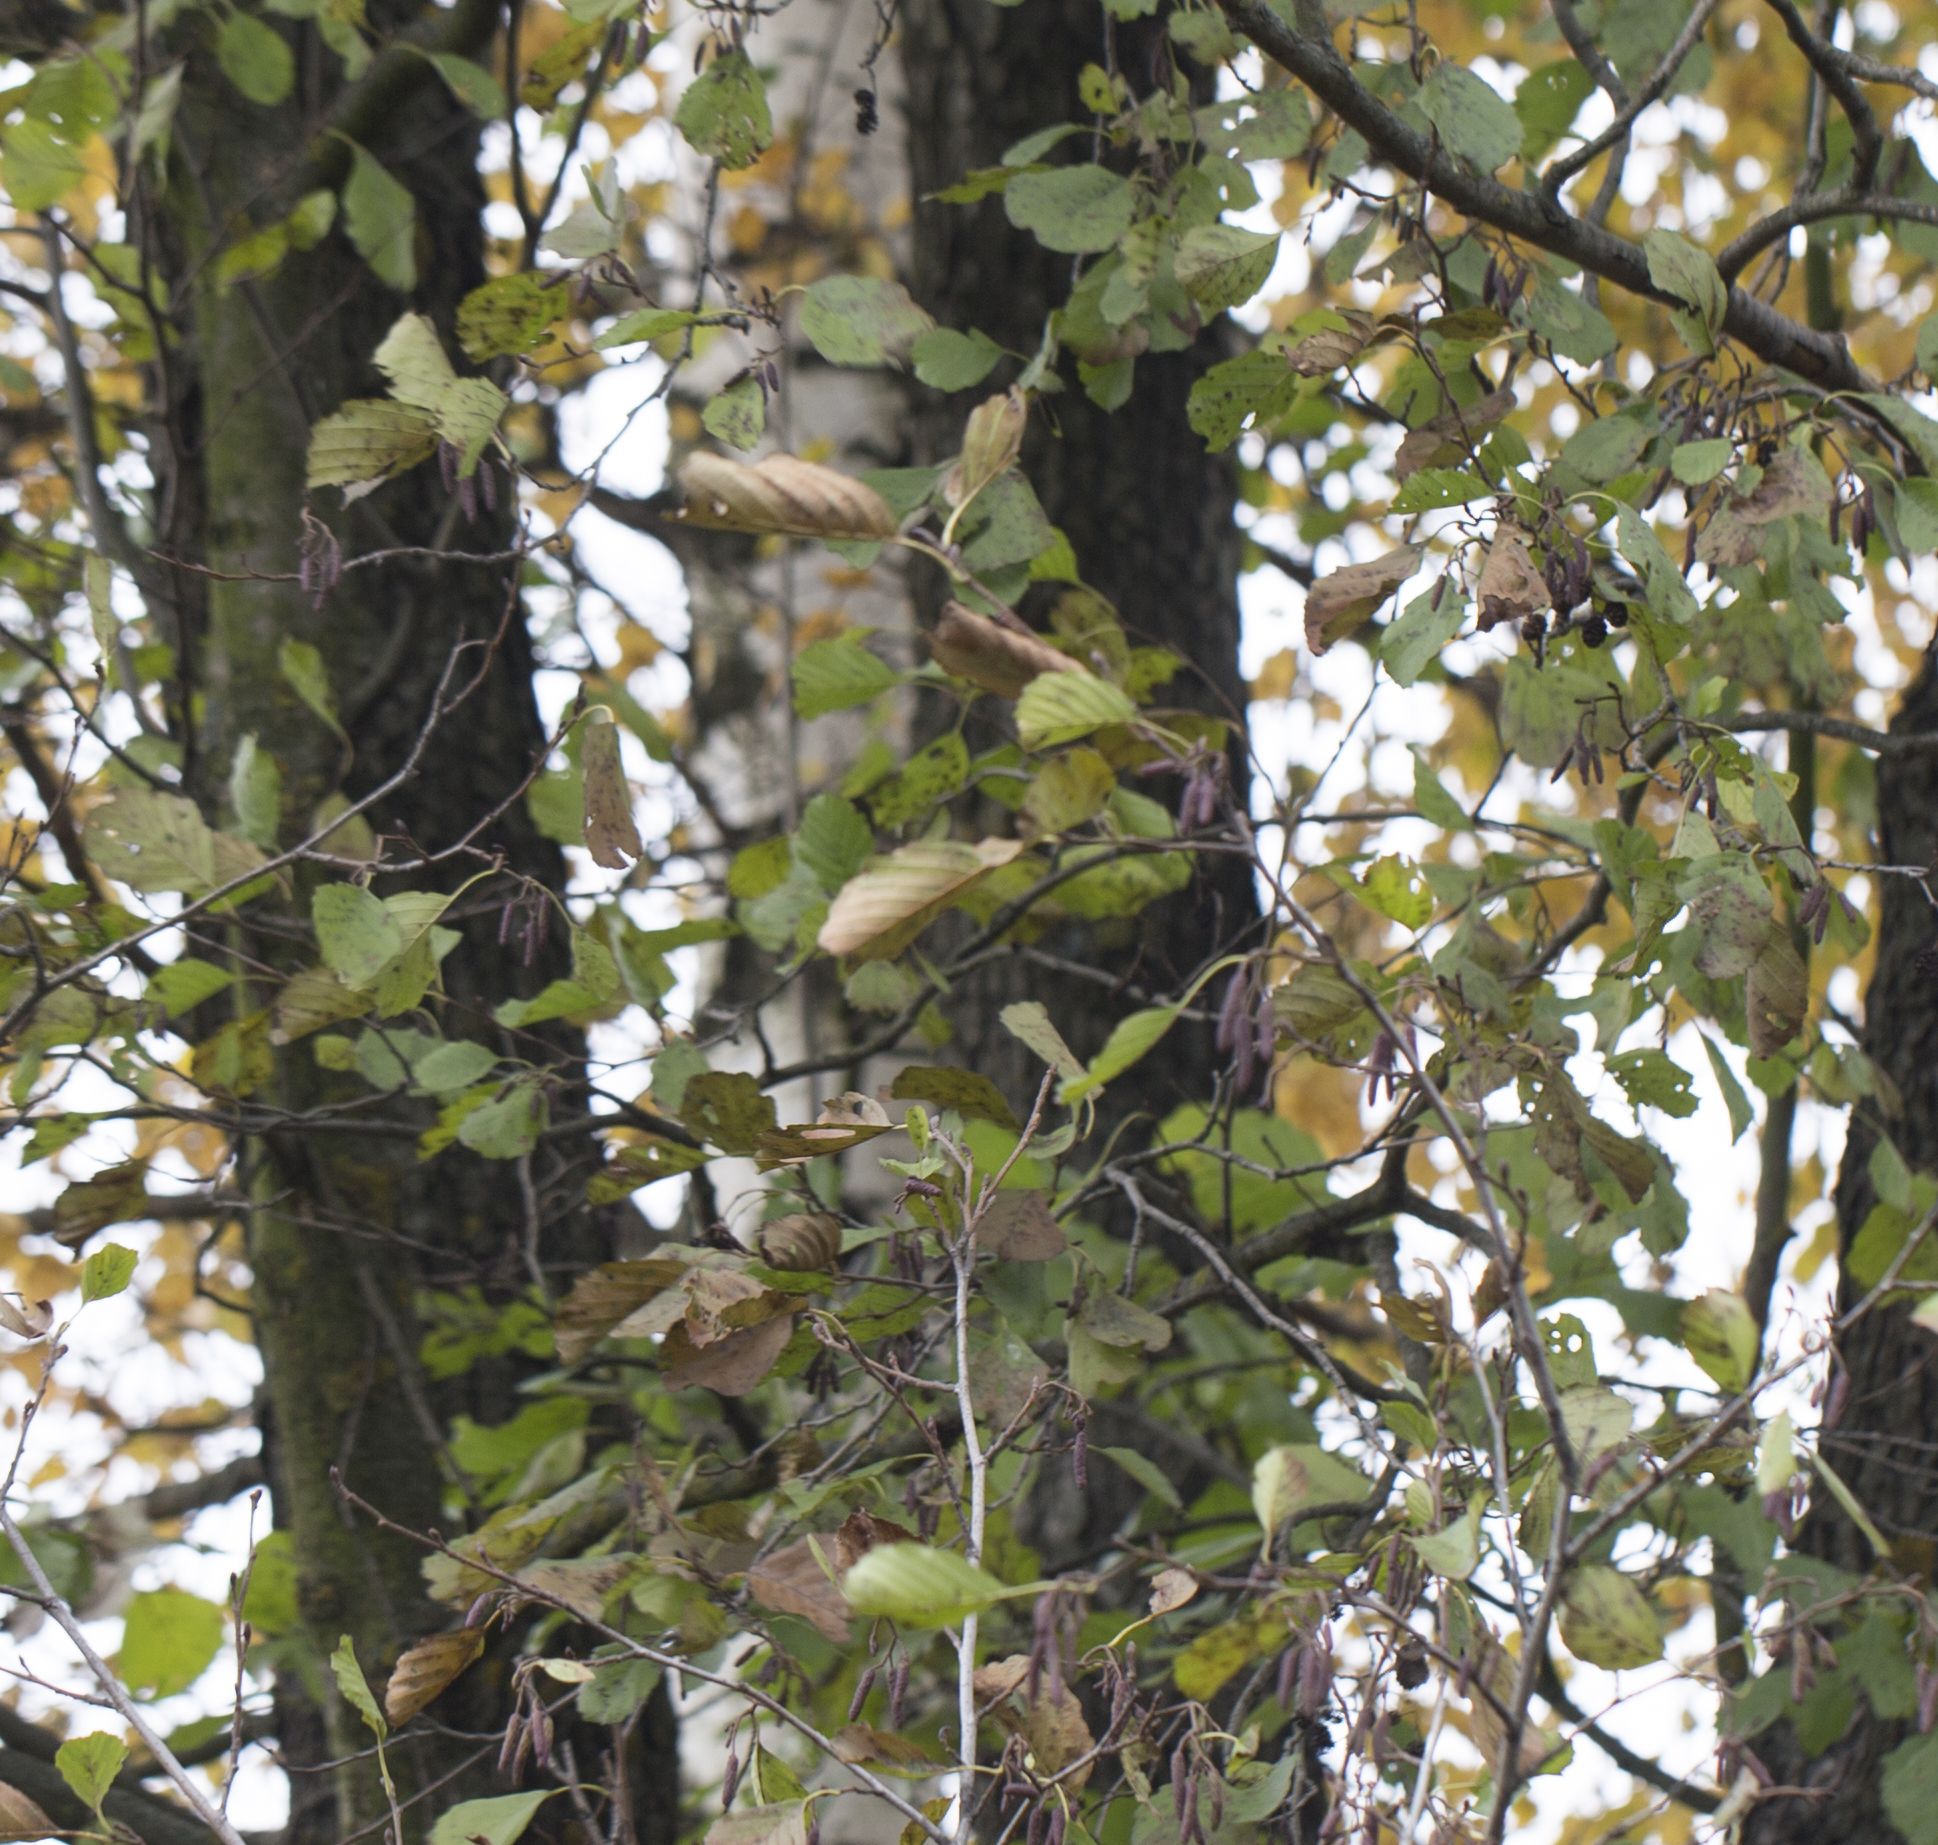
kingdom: Plantae
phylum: Tracheophyta
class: Magnoliopsida
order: Fagales
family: Betulaceae
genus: Alnus
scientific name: Alnus glutinosa
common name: Black alder
